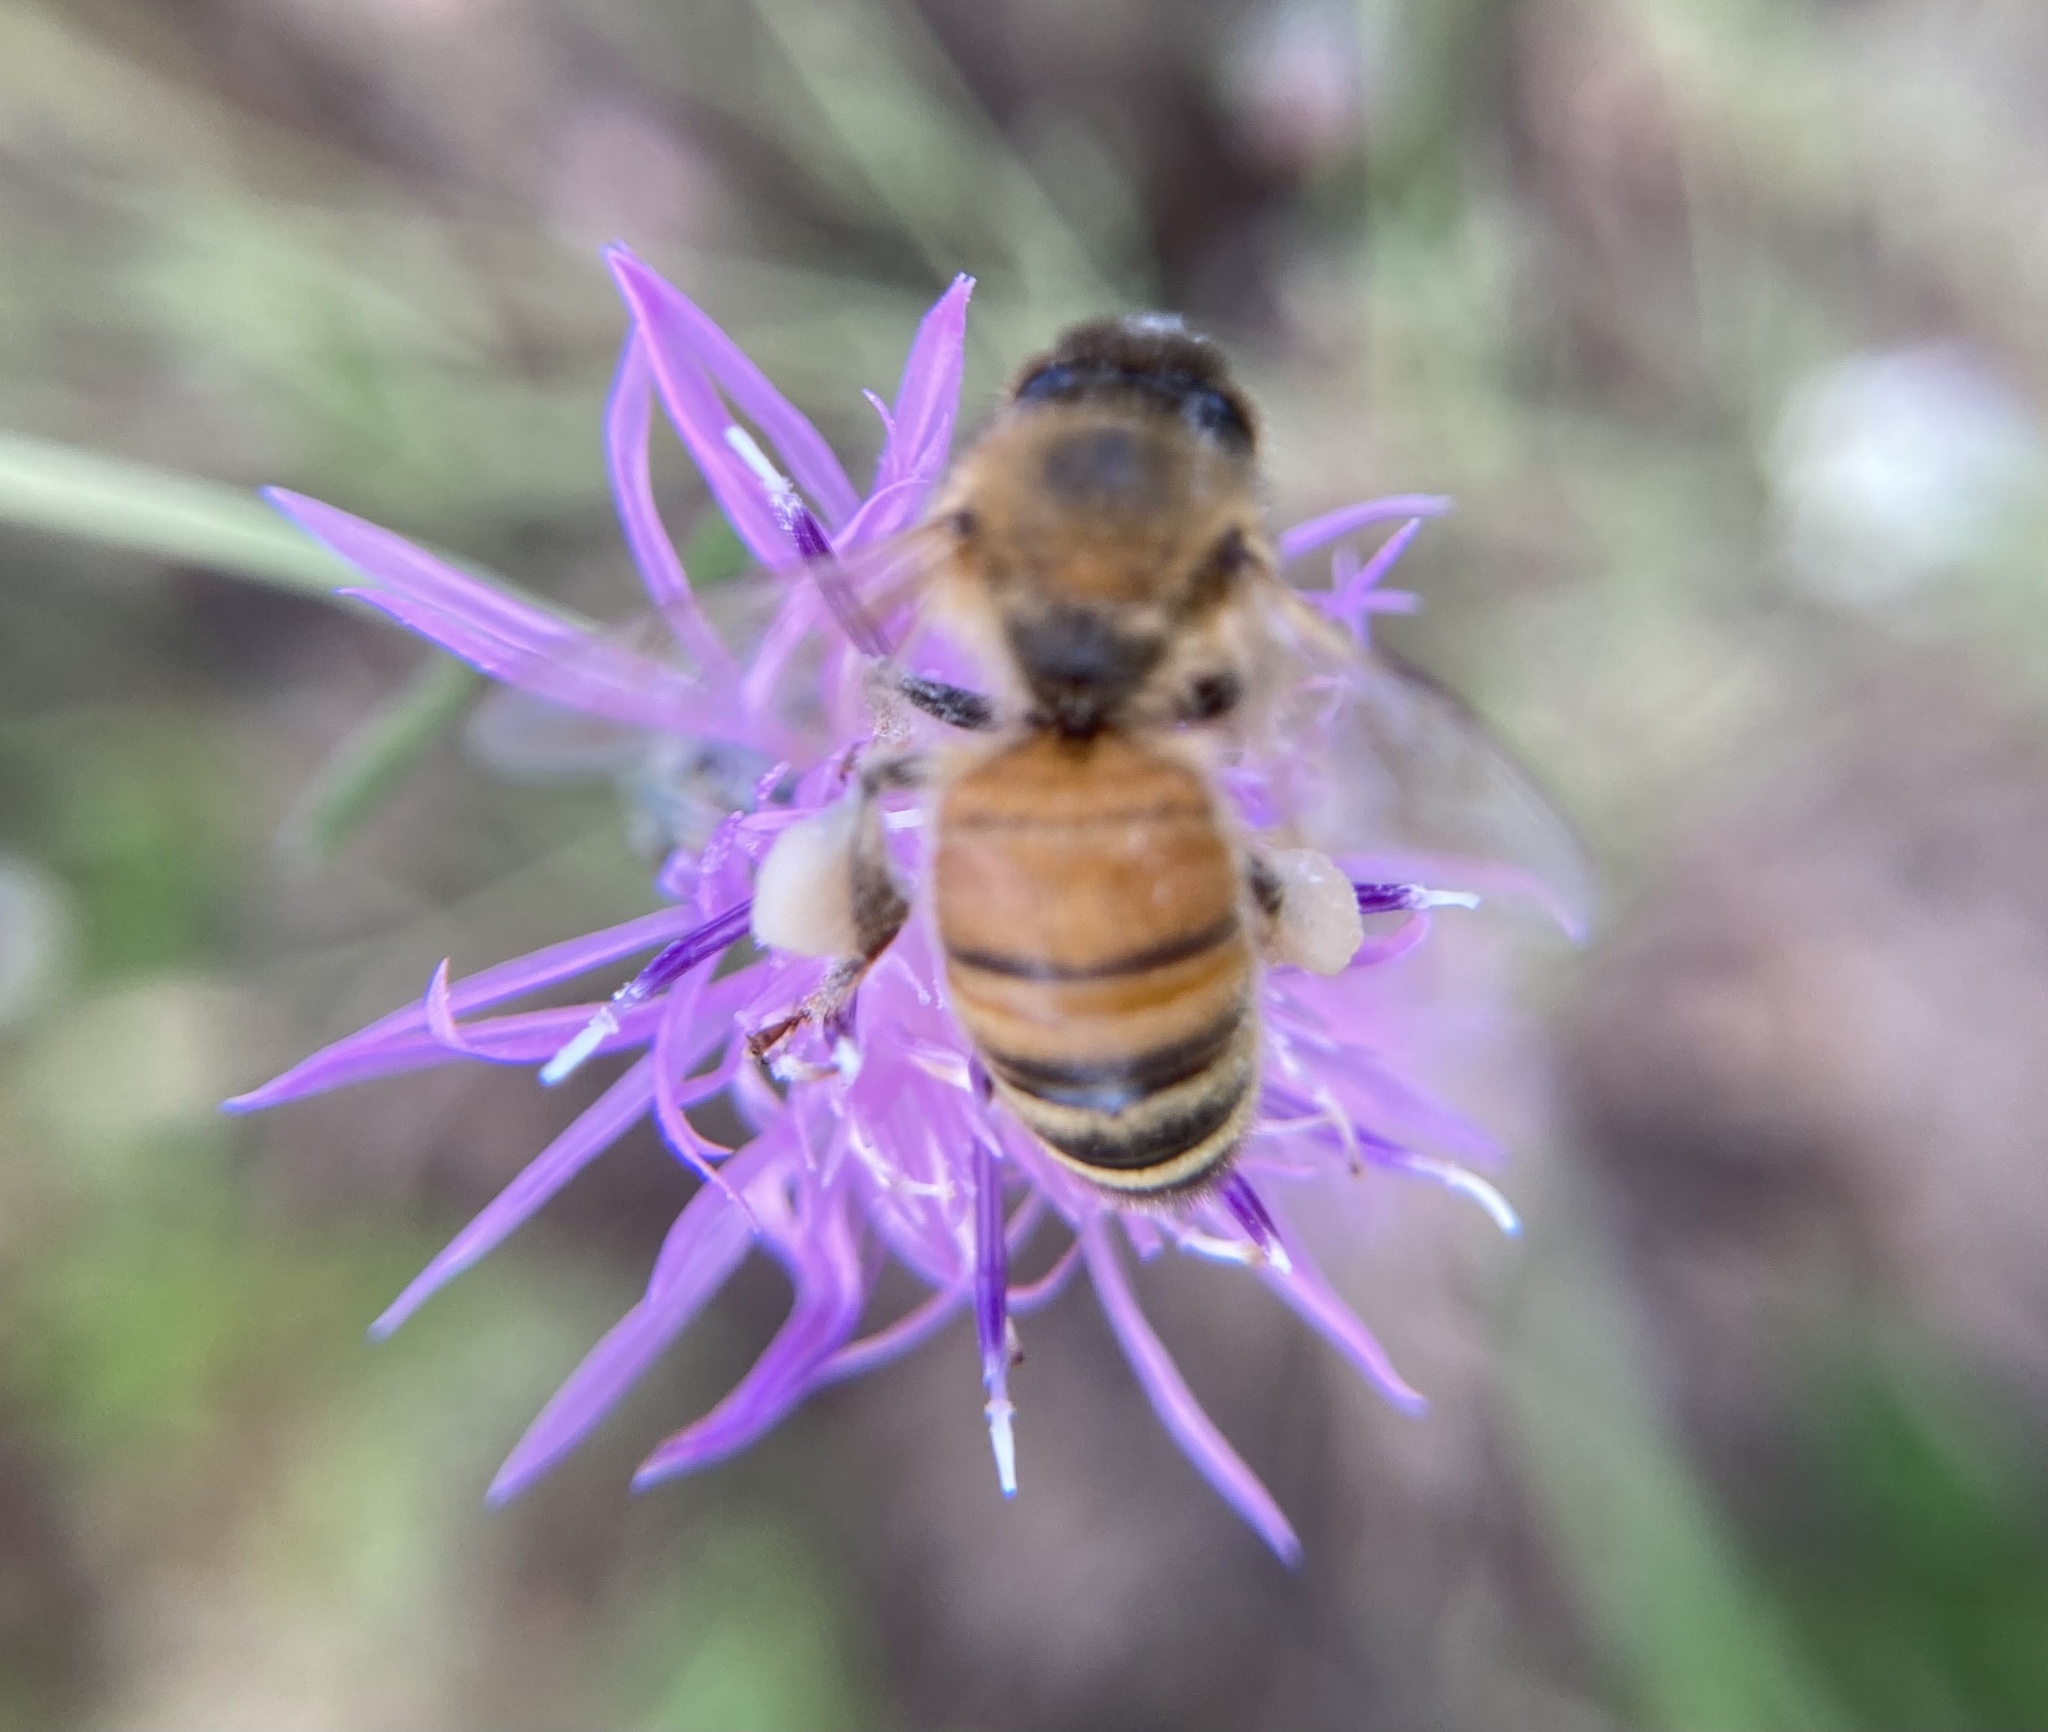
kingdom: Animalia
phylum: Arthropoda
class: Insecta
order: Hymenoptera
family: Apidae
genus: Apis
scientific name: Apis mellifera
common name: Honey bee
